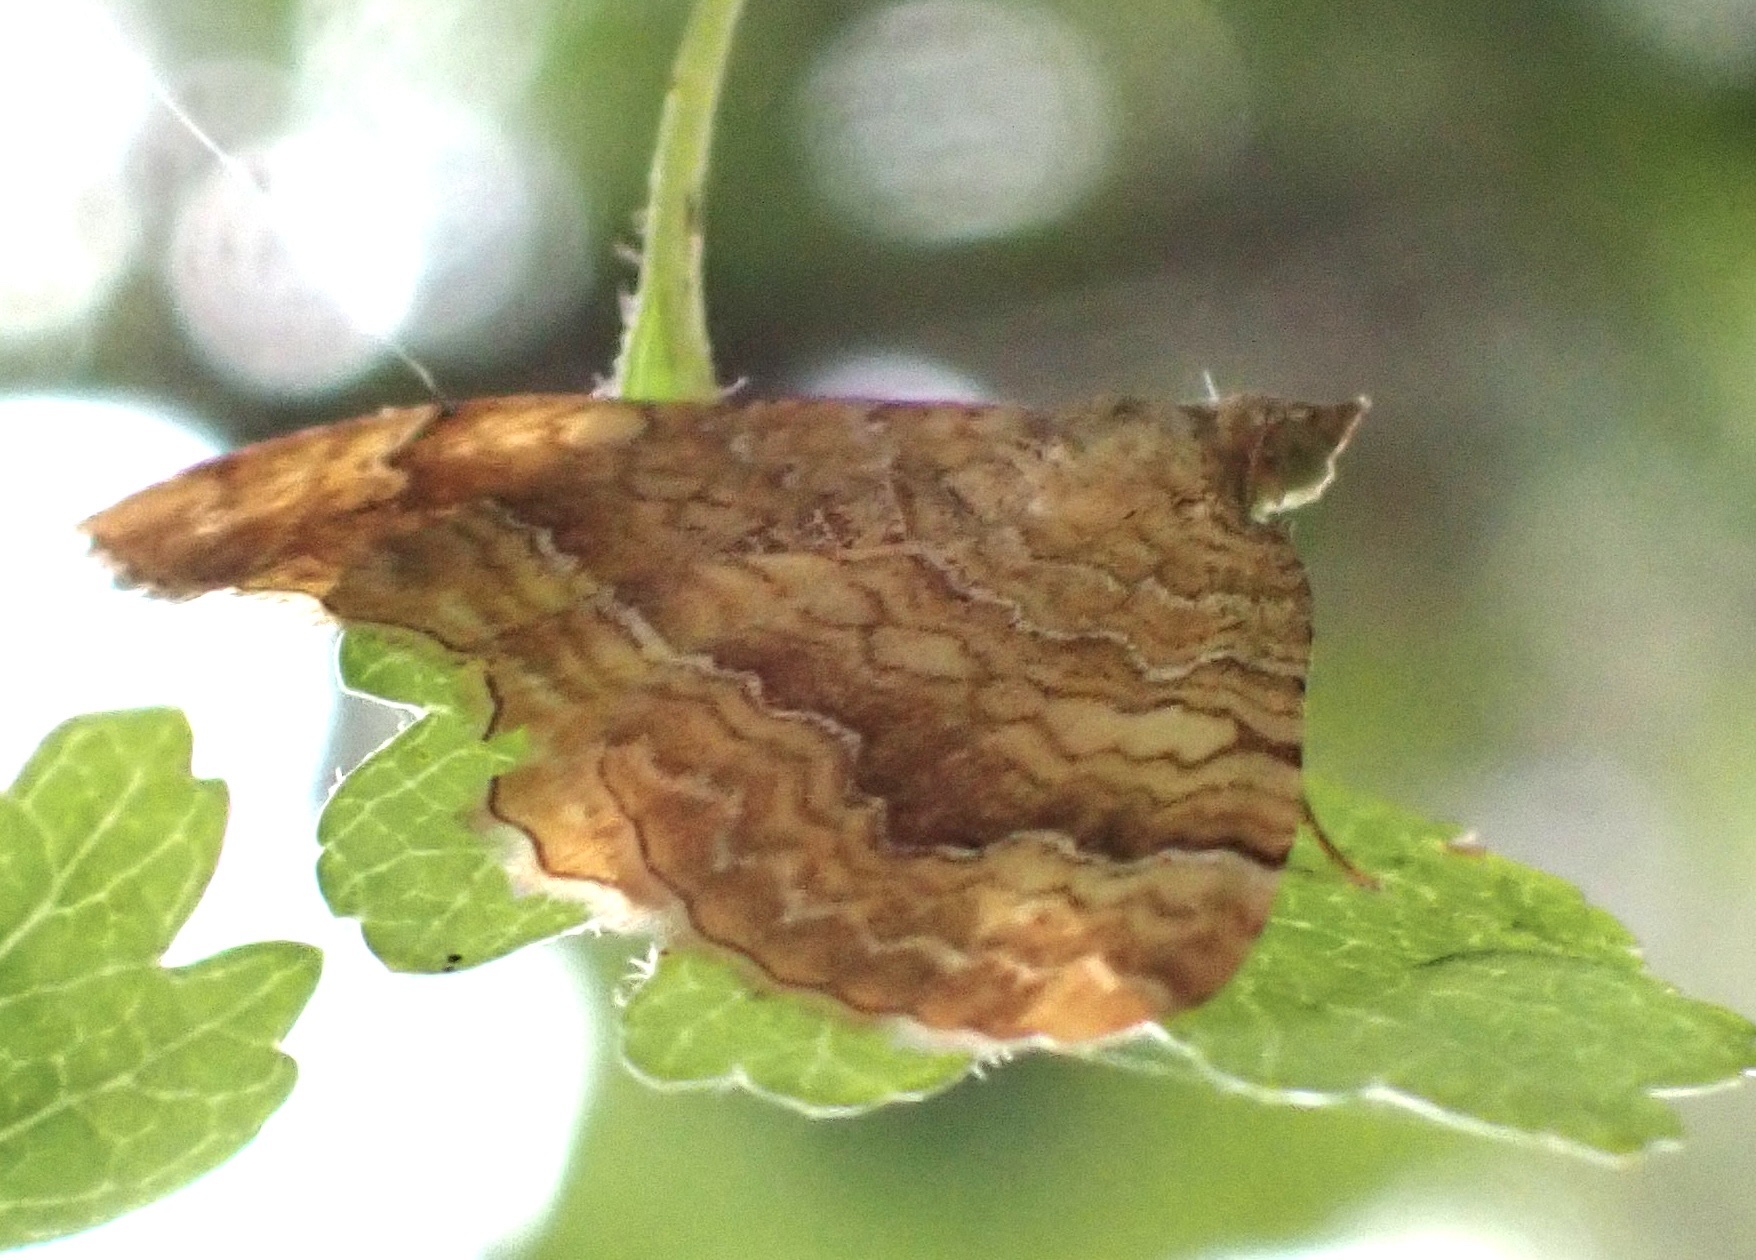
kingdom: Animalia
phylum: Arthropoda
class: Insecta
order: Lepidoptera
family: Geometridae
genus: Camptogramma
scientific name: Camptogramma bilineata
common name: Yellow shell
